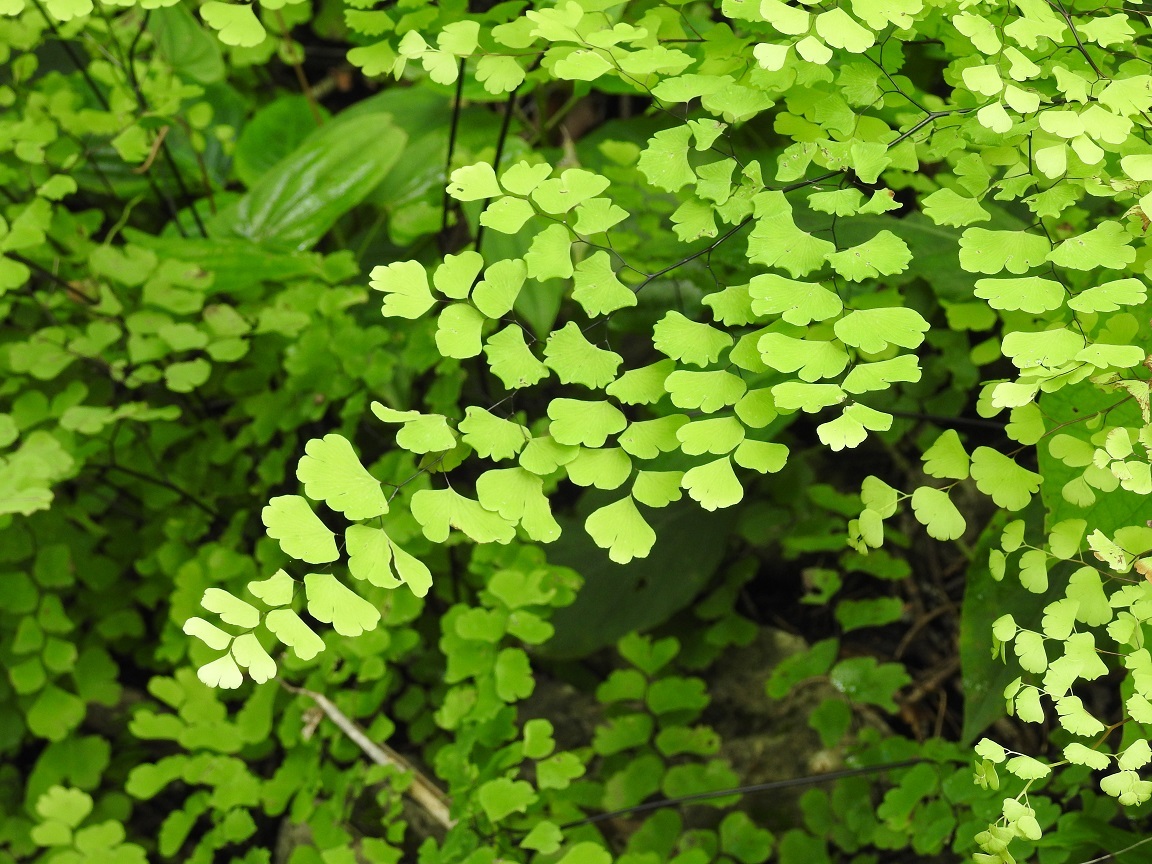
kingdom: Plantae
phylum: Tracheophyta
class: Polypodiopsida
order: Polypodiales
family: Pteridaceae
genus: Adiantum
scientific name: Adiantum braunii
